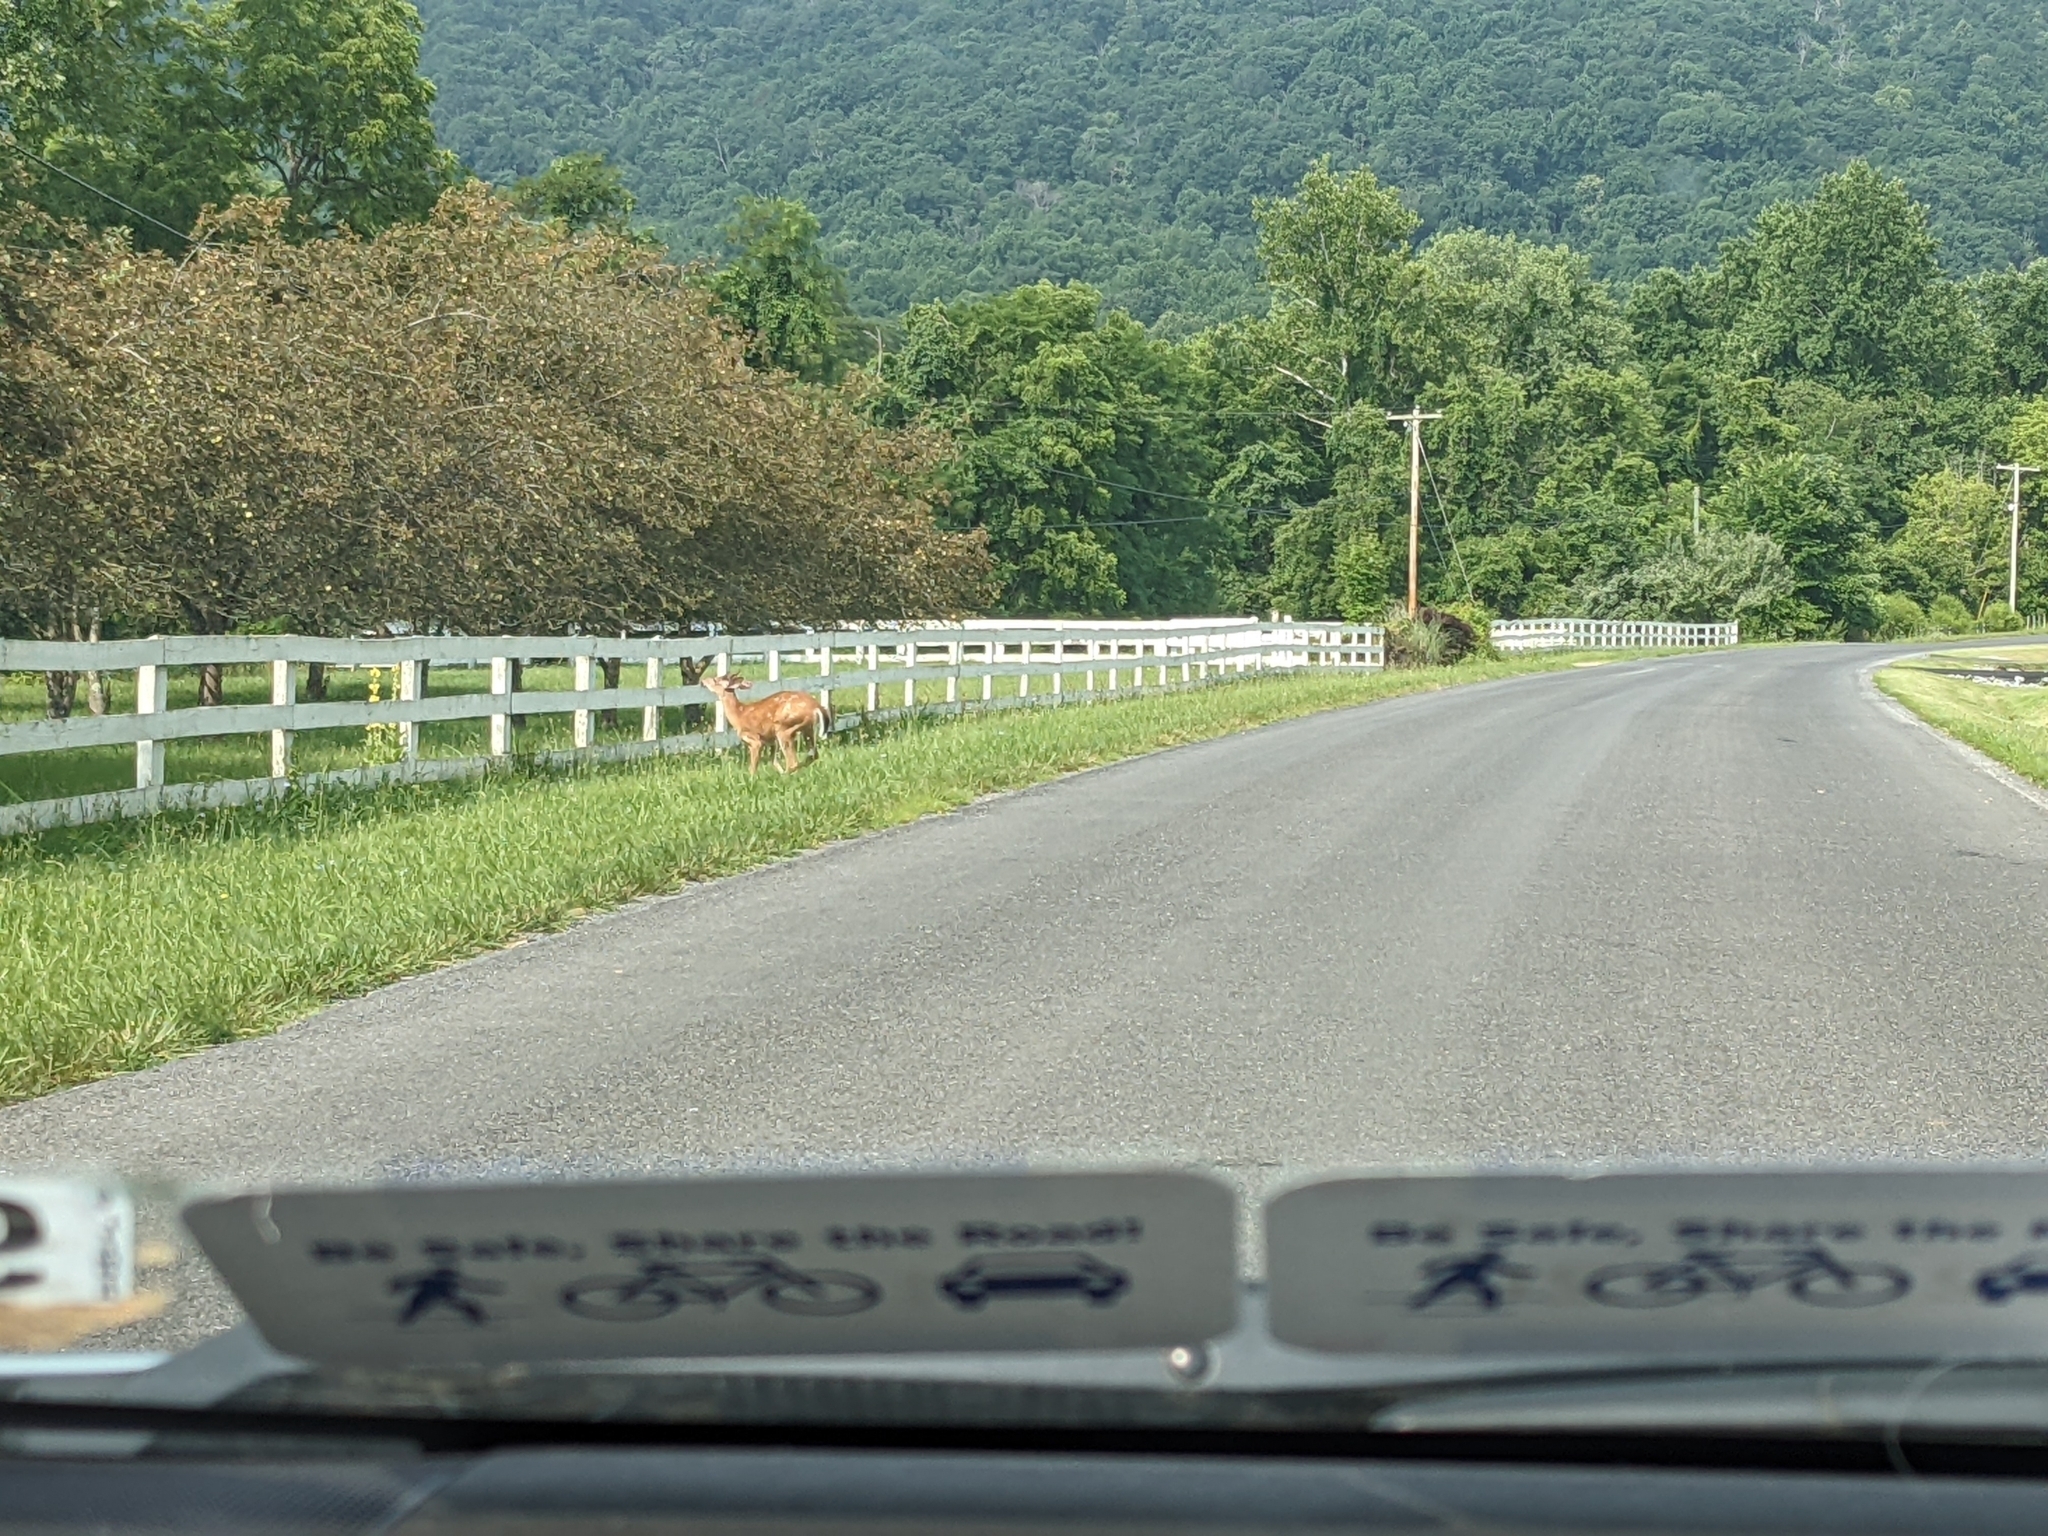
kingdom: Animalia
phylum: Chordata
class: Mammalia
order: Artiodactyla
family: Cervidae
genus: Odocoileus
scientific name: Odocoileus virginianus
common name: White-tailed deer
